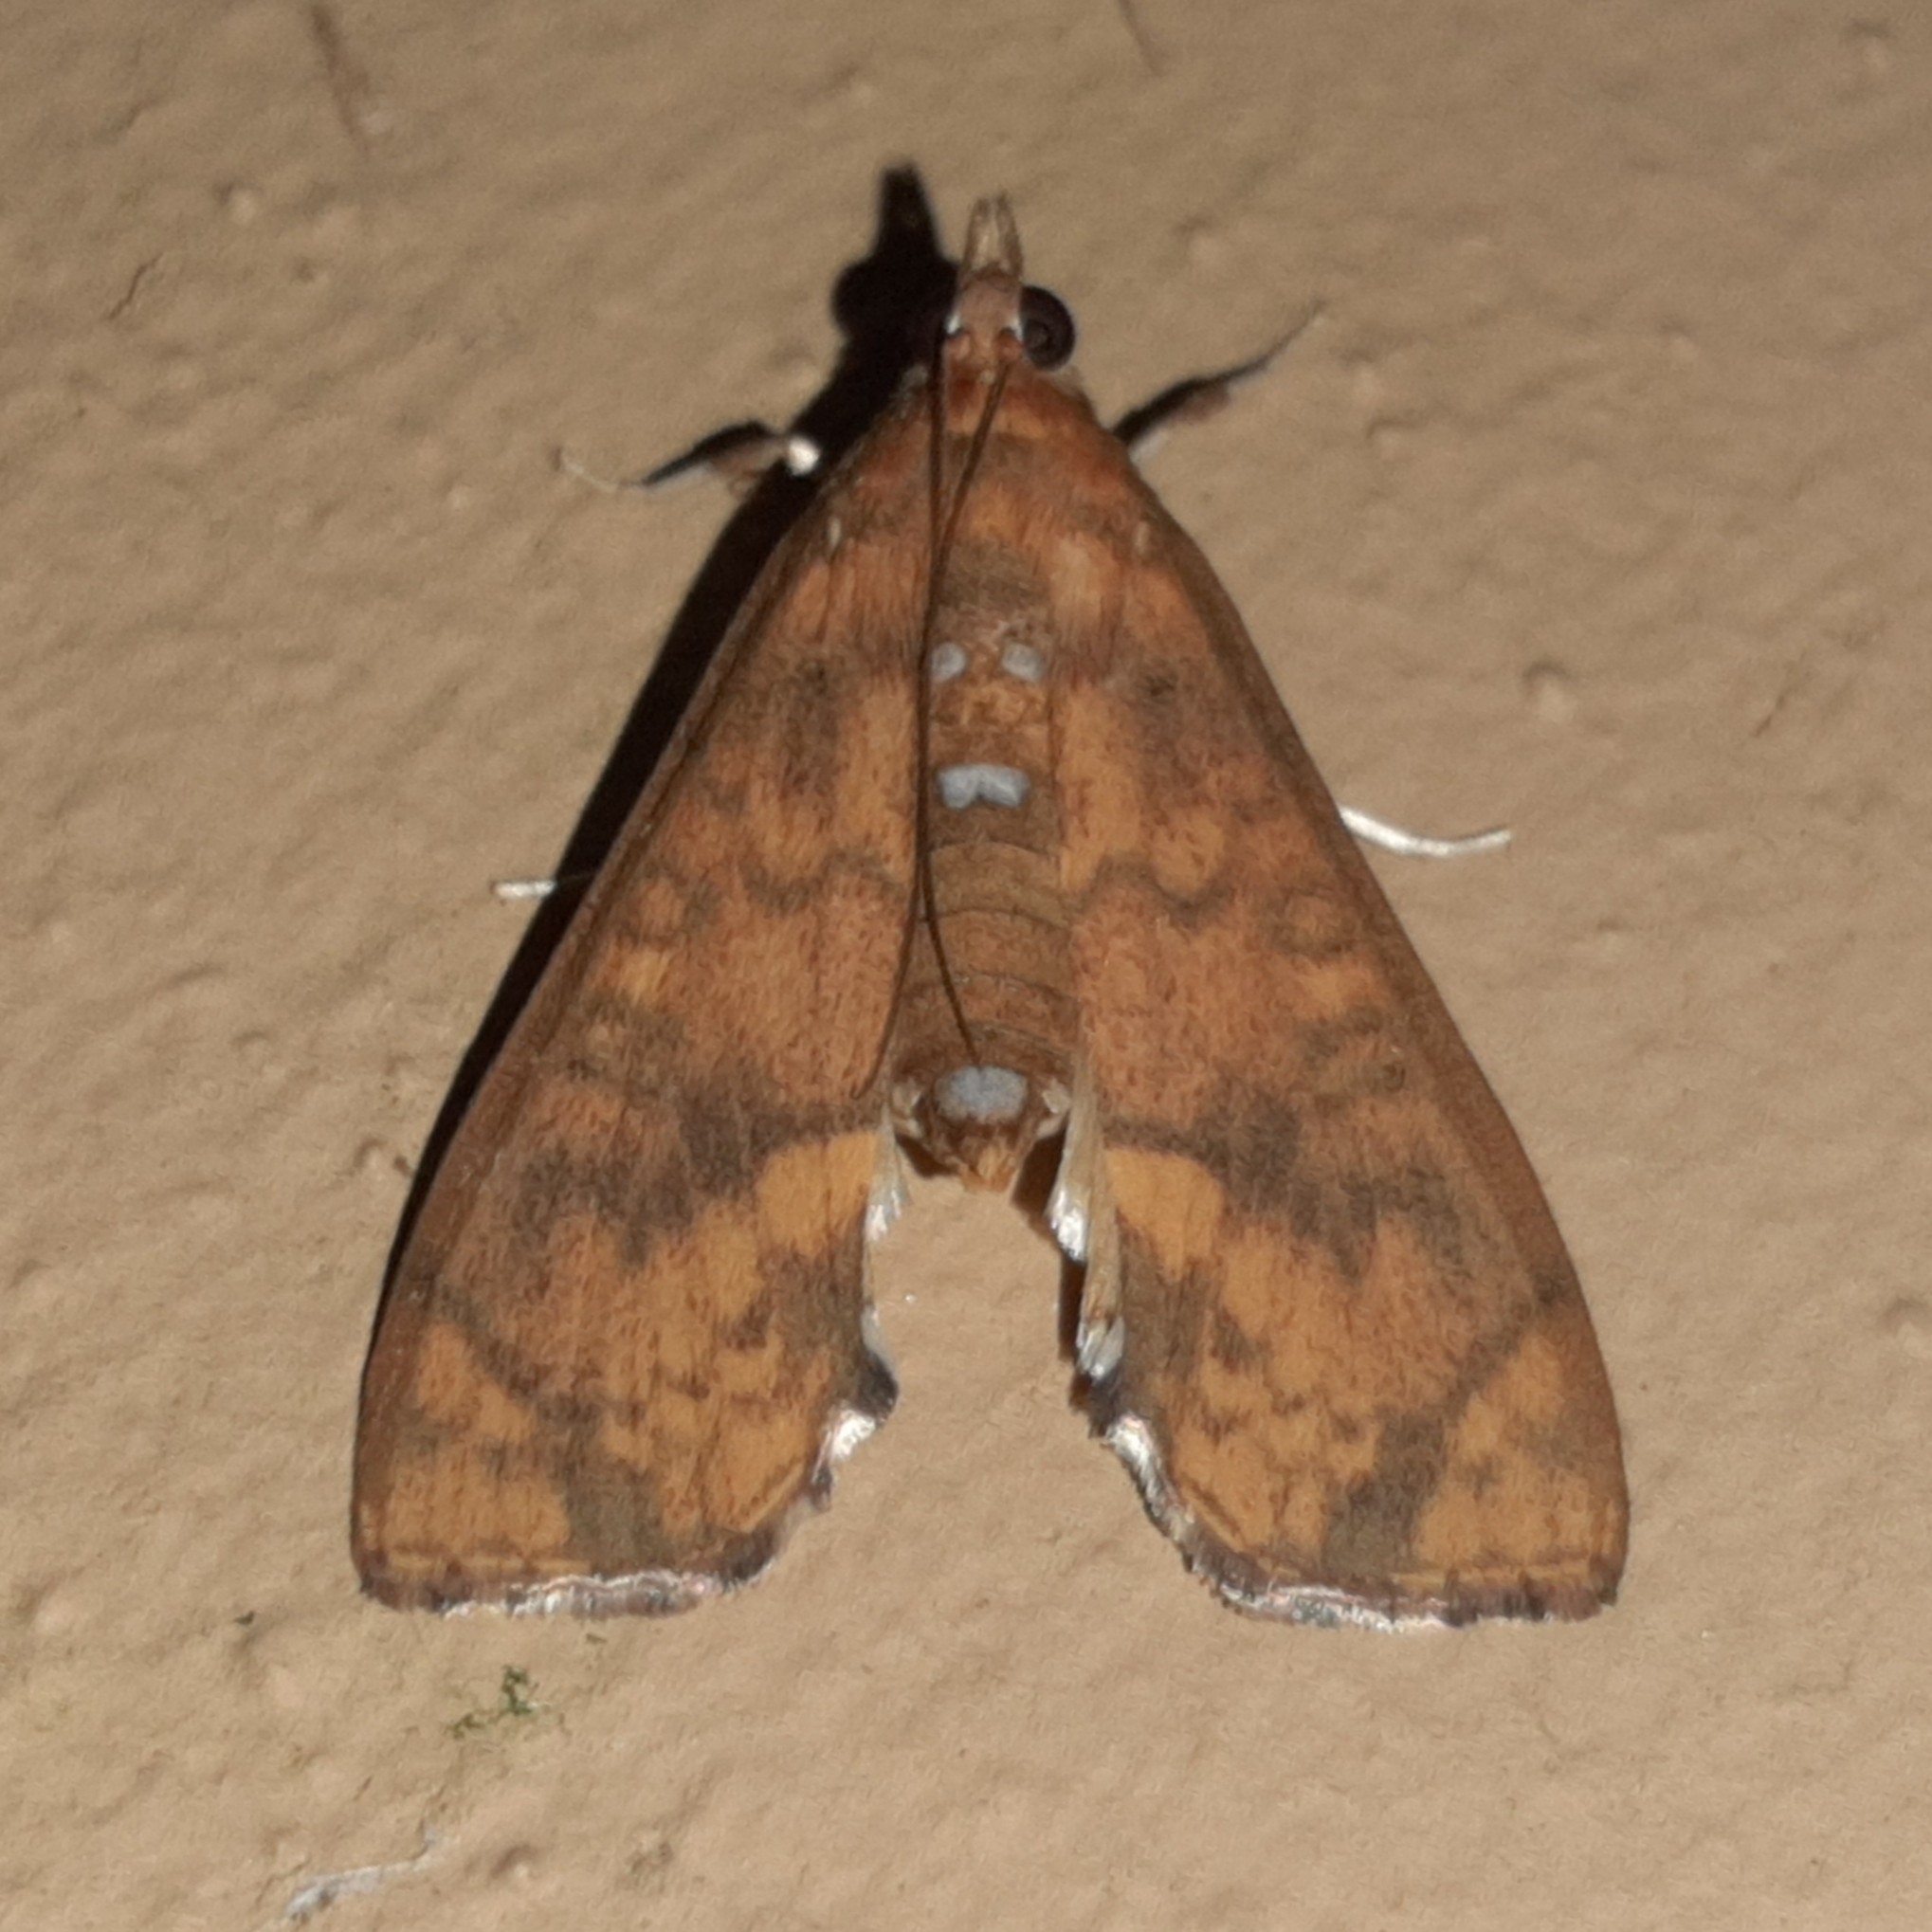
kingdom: Animalia
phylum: Arthropoda
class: Insecta
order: Lepidoptera
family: Crambidae
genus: Liopasia
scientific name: Liopasia ochracealis
